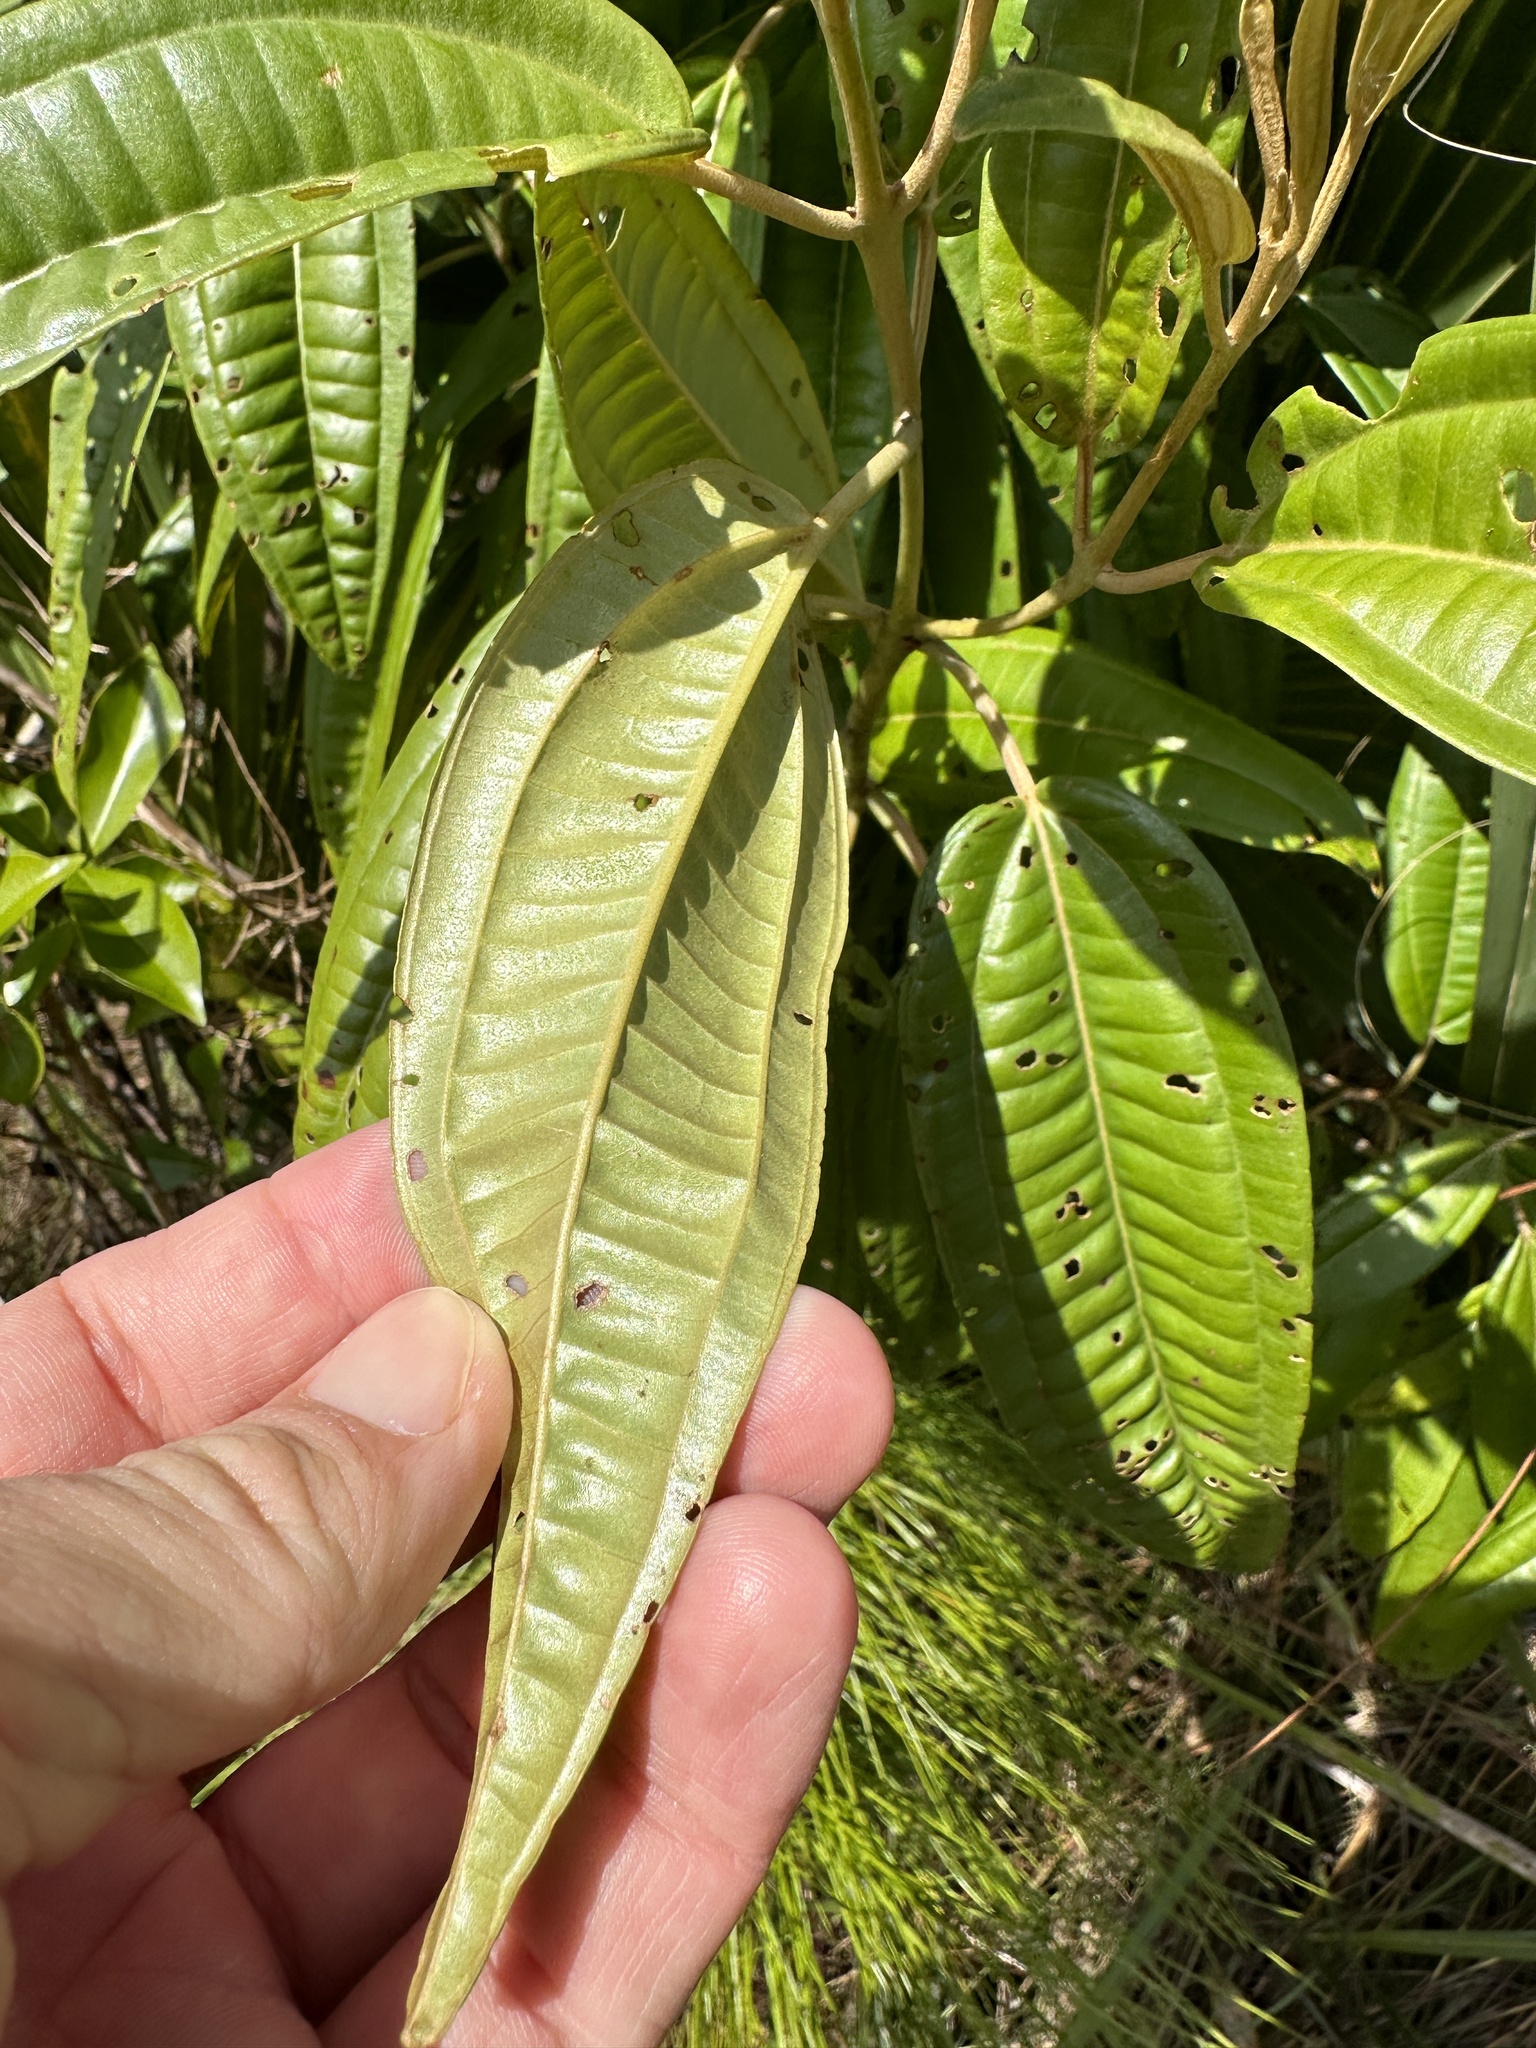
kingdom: Plantae
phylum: Tracheophyta
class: Magnoliopsida
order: Myrtales
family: Melastomataceae
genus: Miconia
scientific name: Miconia bicolor
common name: Johnnyberry
